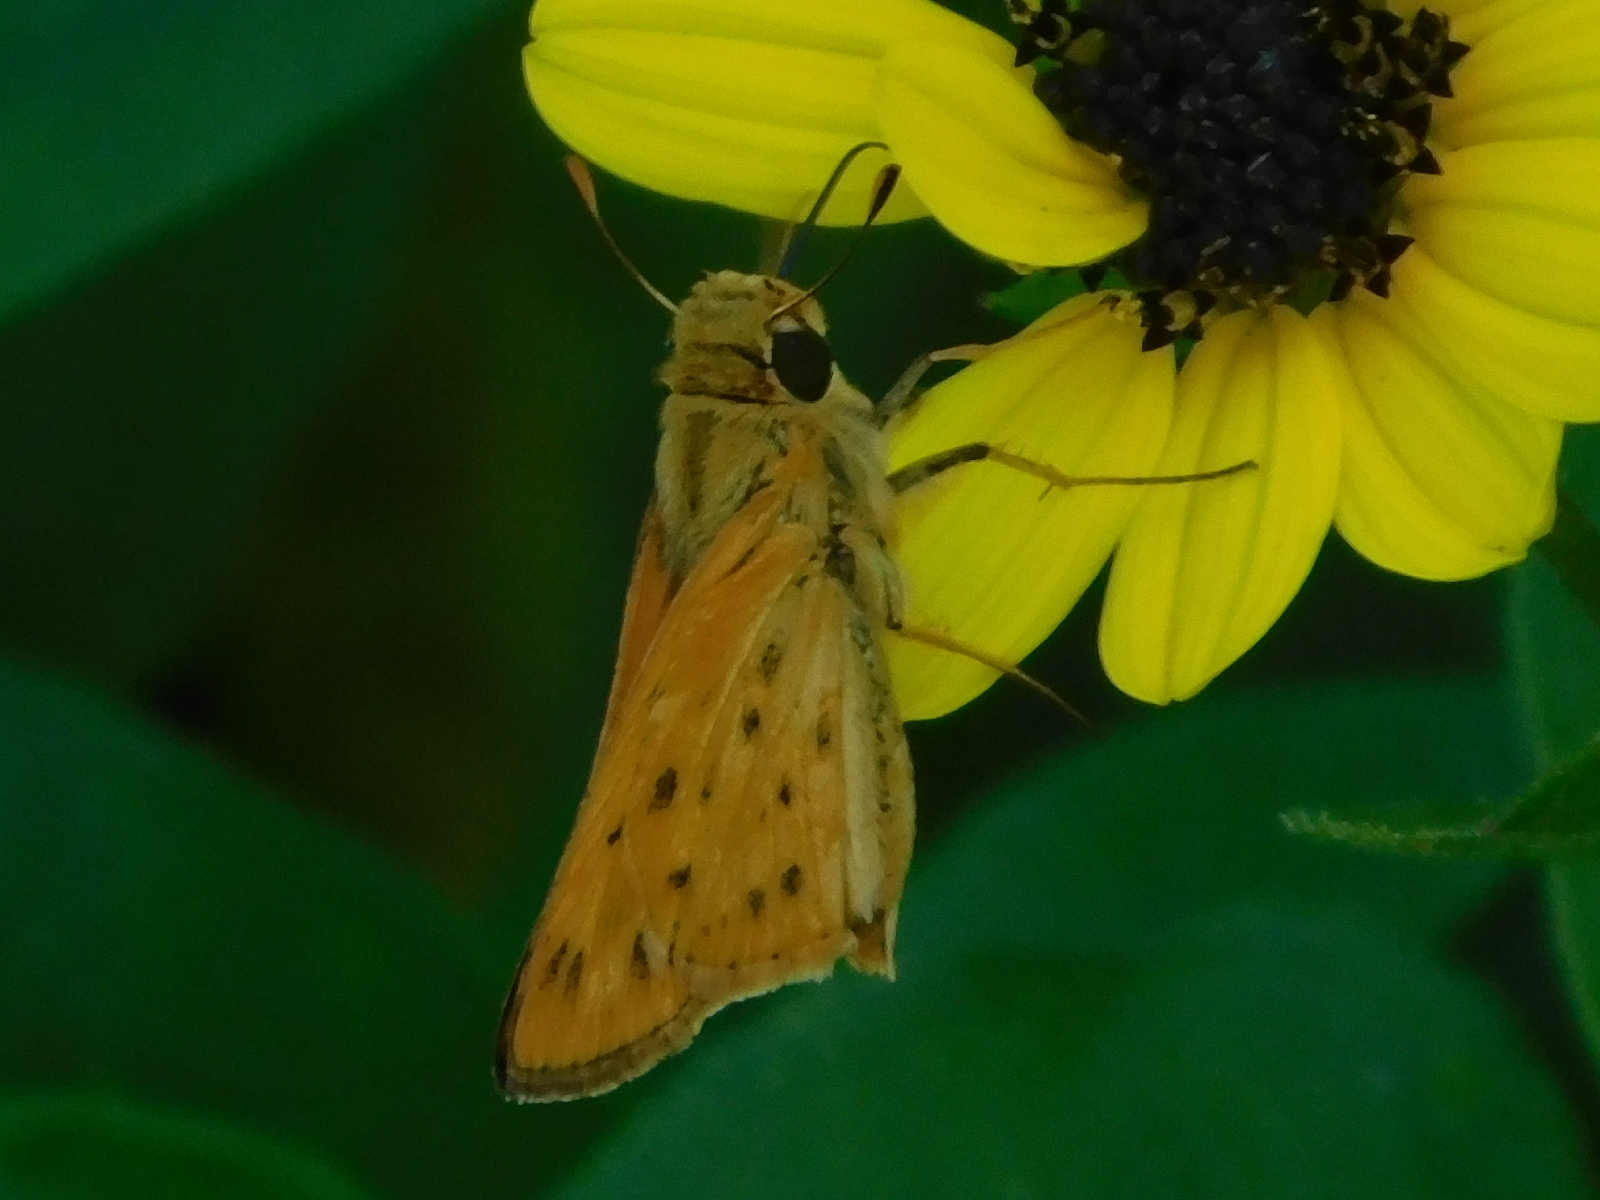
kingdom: Animalia
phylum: Arthropoda
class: Insecta
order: Lepidoptera
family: Hesperiidae
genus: Hylephila
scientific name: Hylephila phyleus
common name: Fiery skipper
